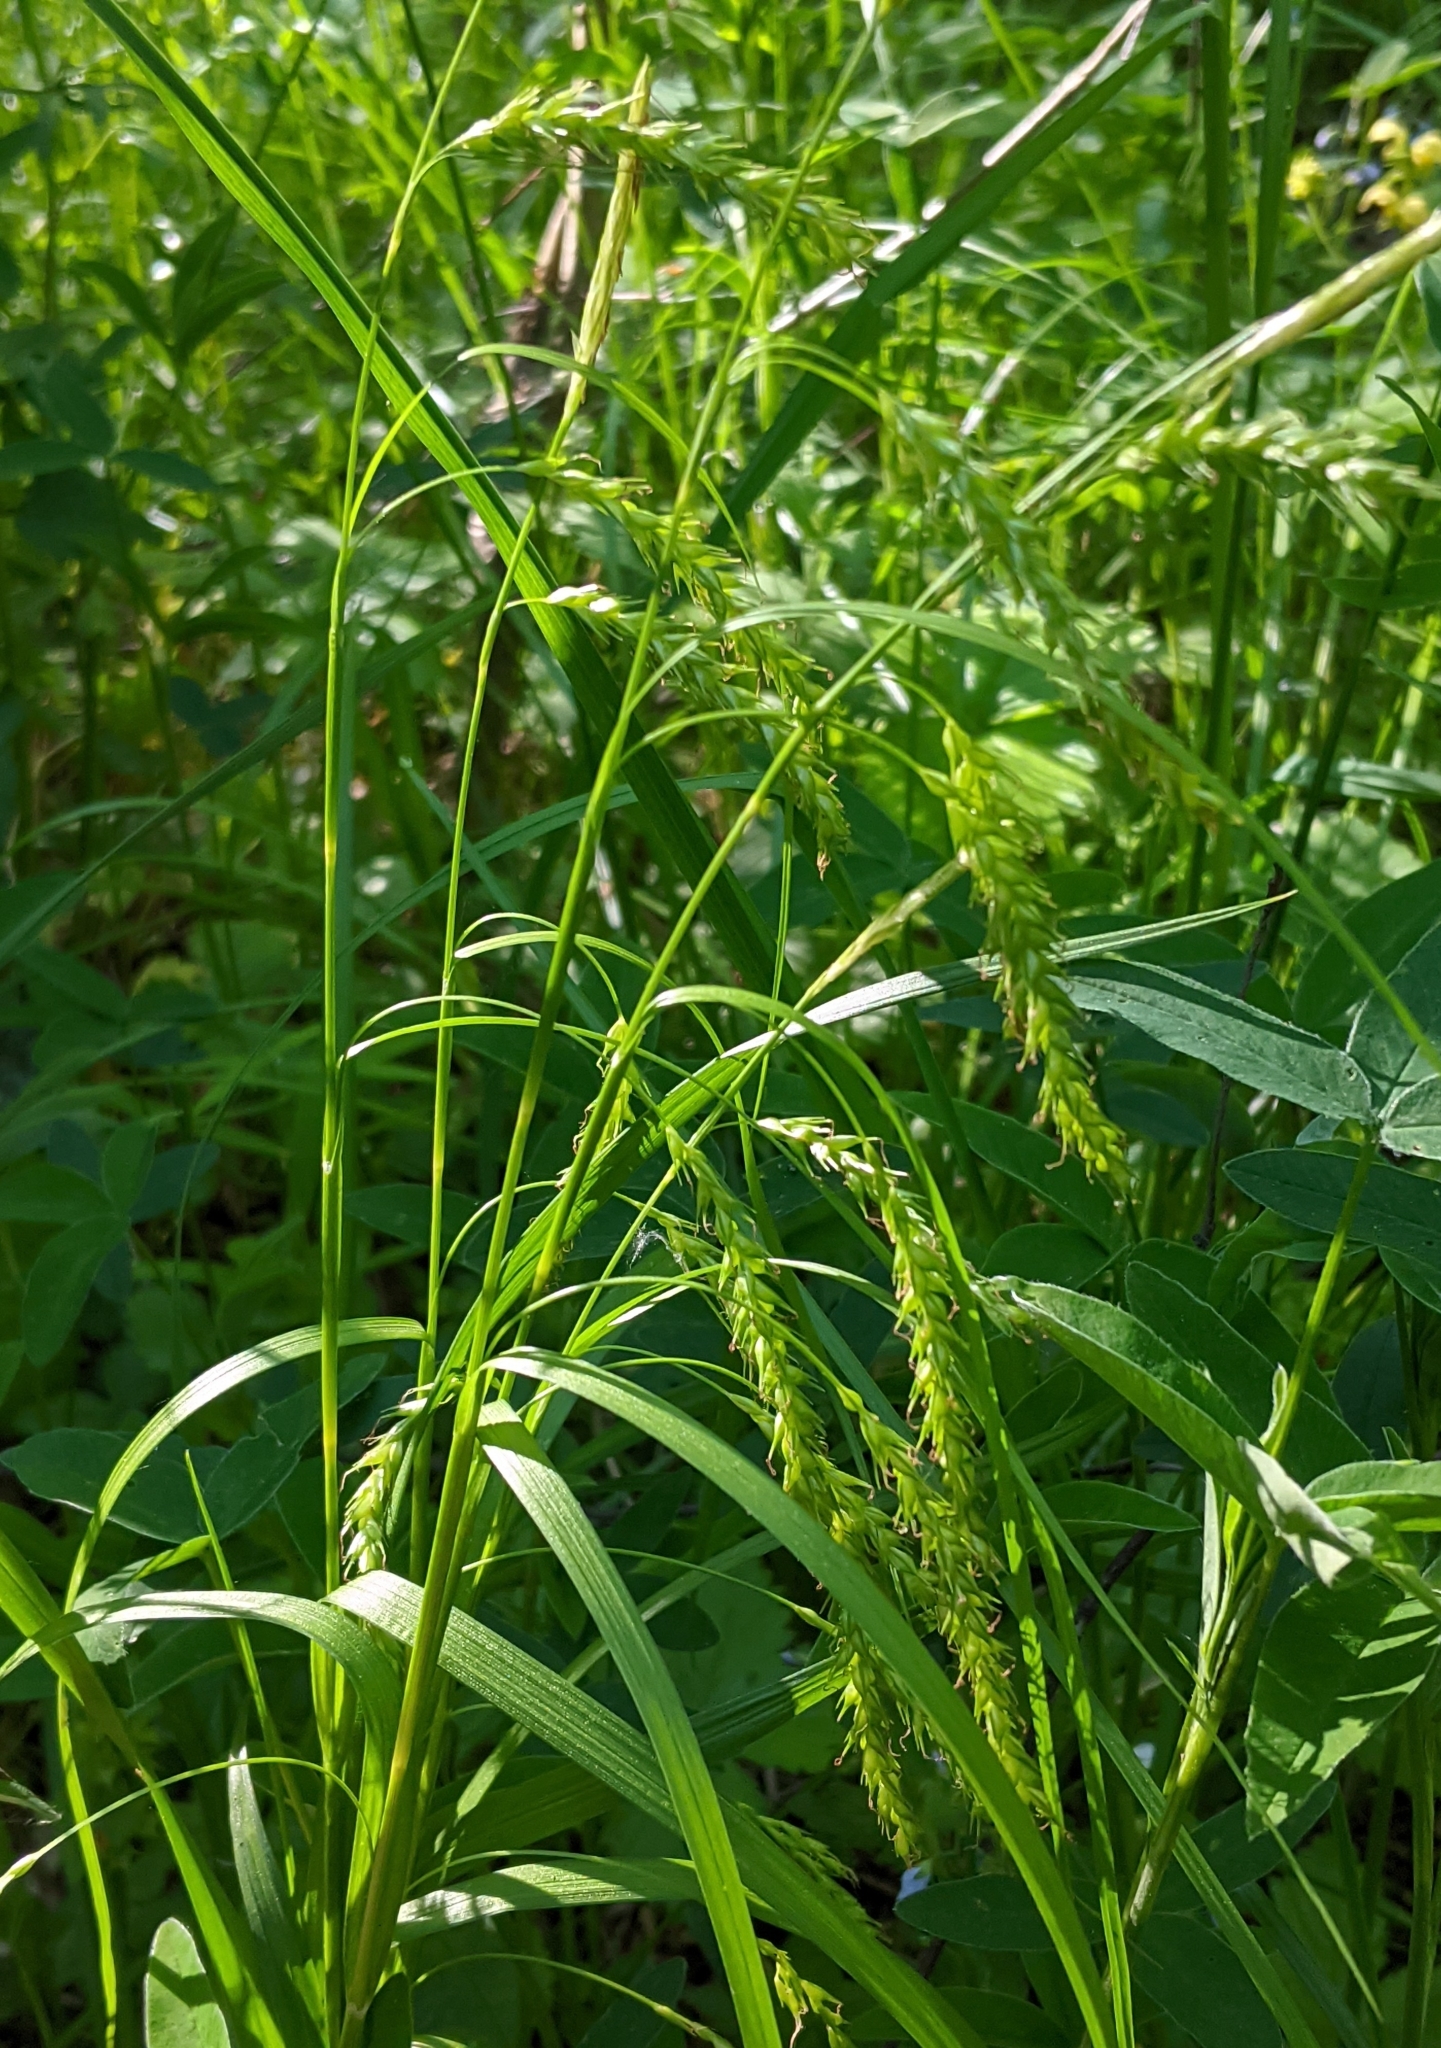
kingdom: Plantae
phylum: Tracheophyta
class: Liliopsida
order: Poales
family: Cyperaceae
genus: Carex
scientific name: Carex sylvatica
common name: Wood-sedge
